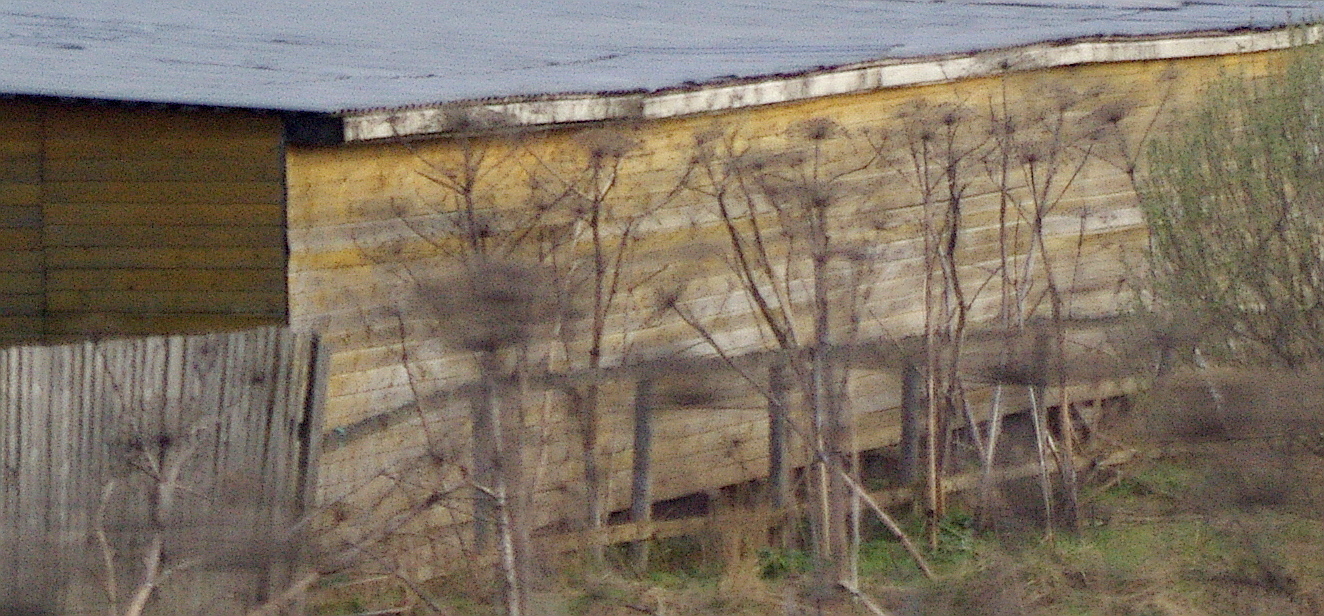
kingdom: Plantae
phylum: Tracheophyta
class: Magnoliopsida
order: Apiales
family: Apiaceae
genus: Heracleum
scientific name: Heracleum sosnowskyi
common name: Sosnowsky's hogweed
